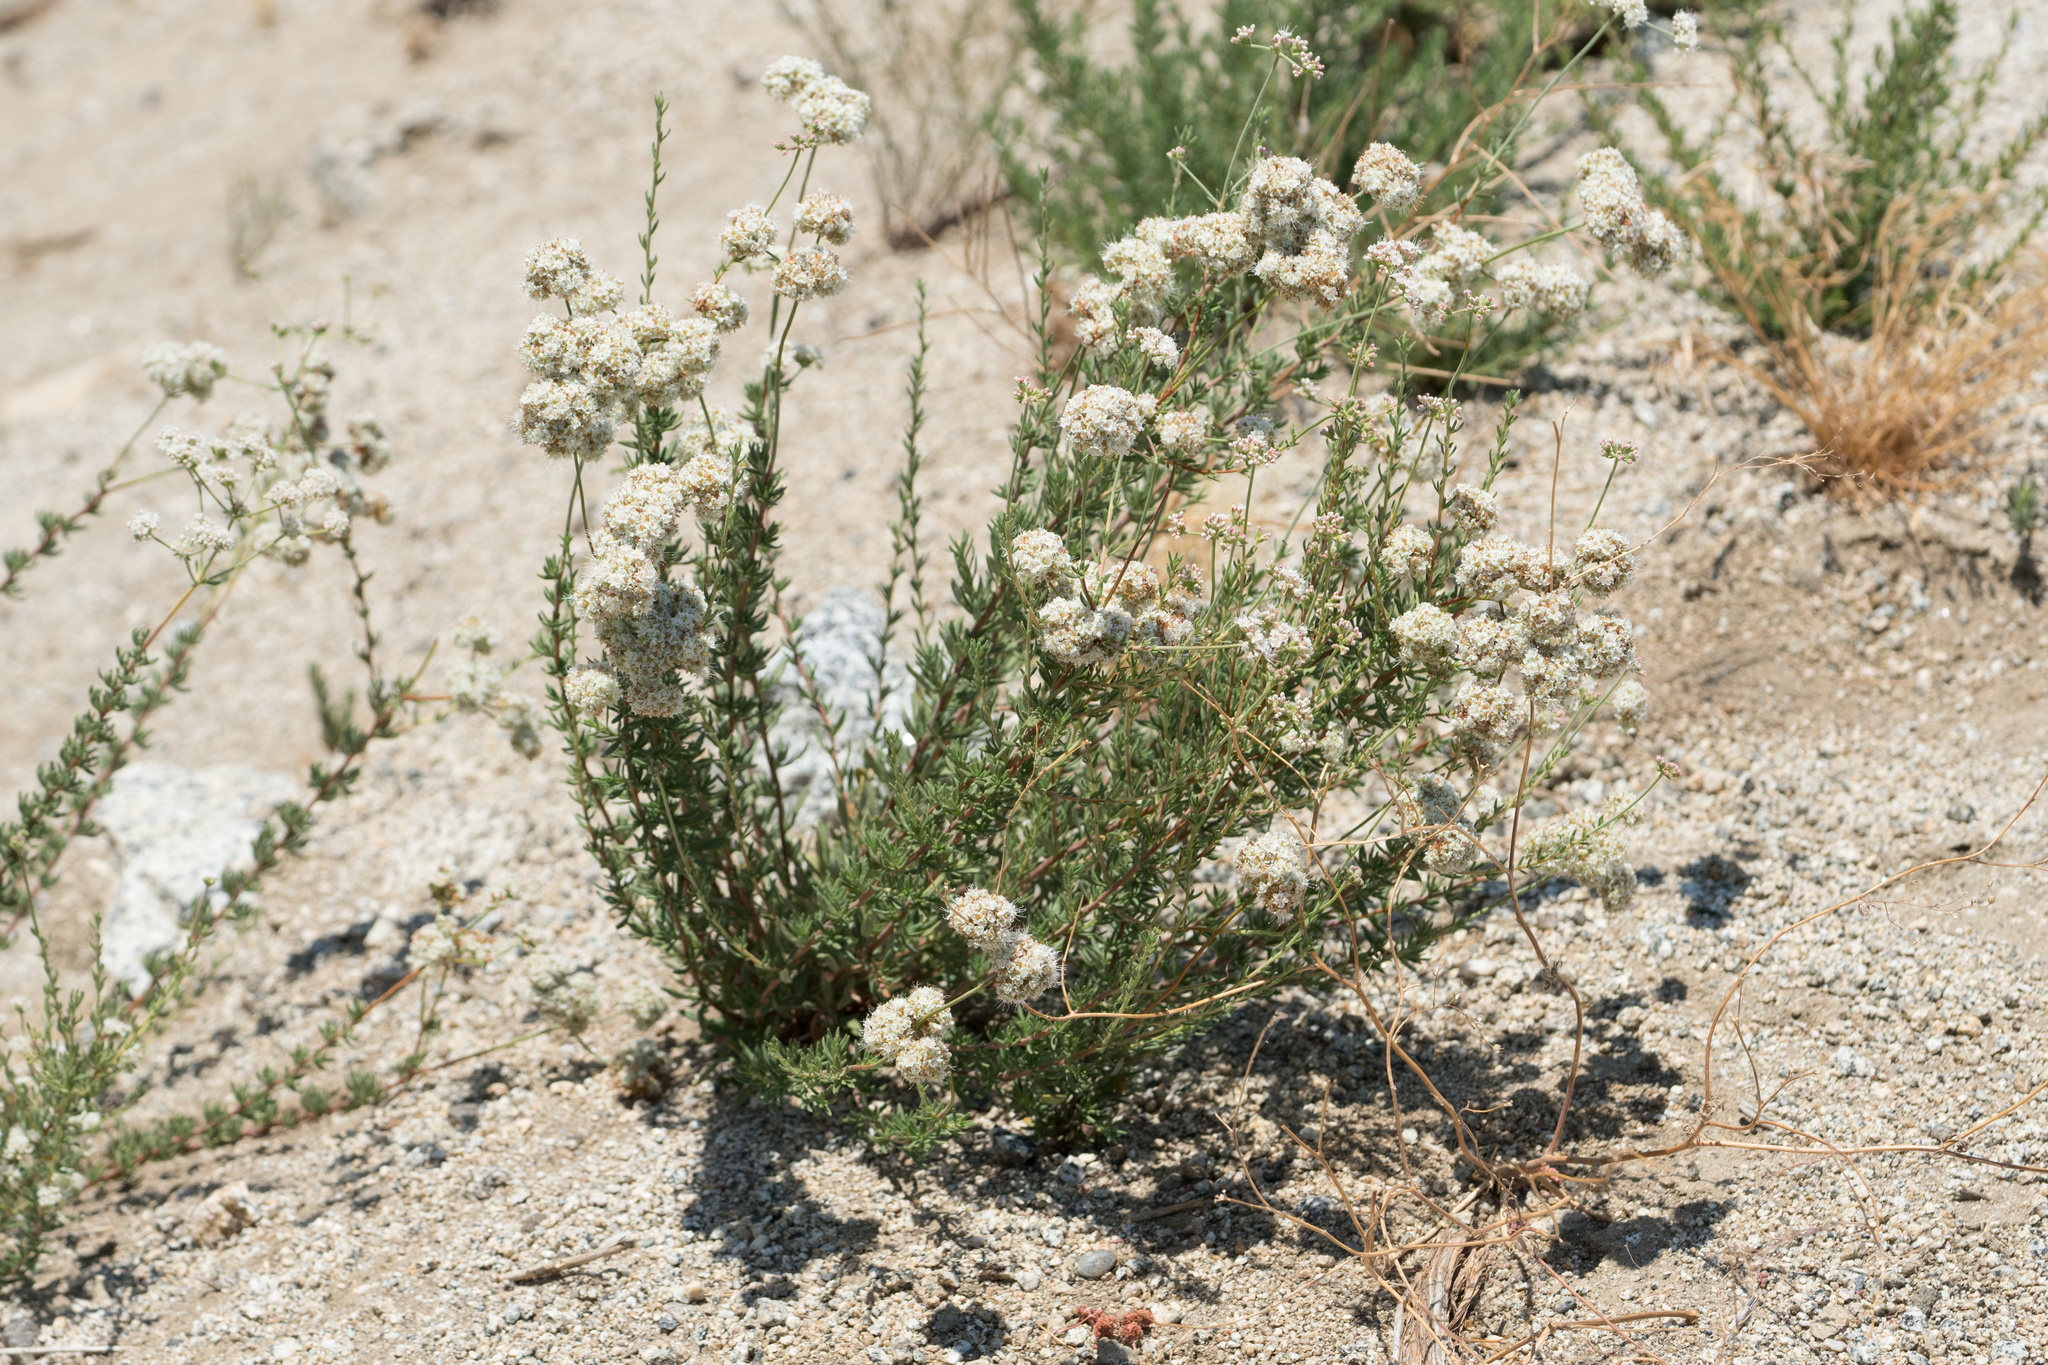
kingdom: Plantae
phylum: Tracheophyta
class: Magnoliopsida
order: Caryophyllales
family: Polygonaceae
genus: Eriogonum
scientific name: Eriogonum fasciculatum
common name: California wild buckwheat
